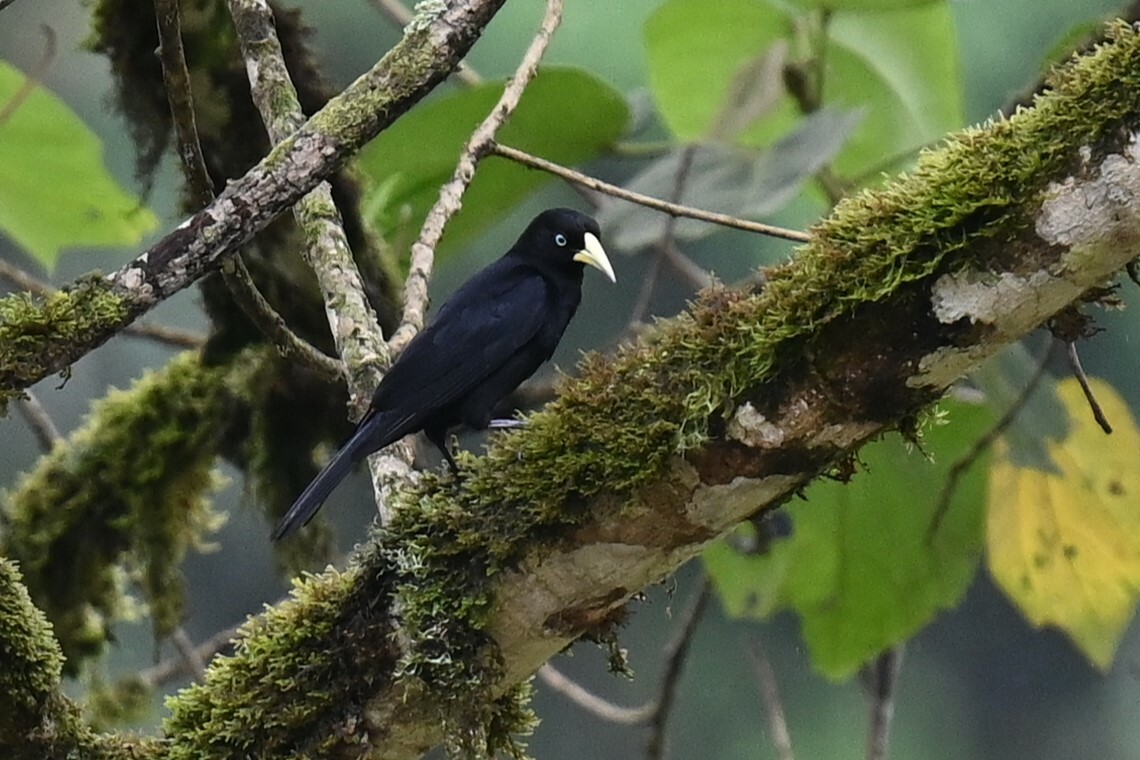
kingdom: Animalia
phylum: Chordata
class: Aves
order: Passeriformes
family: Icteridae
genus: Cacicus
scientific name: Cacicus uropygialis
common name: Scarlet-rumped cacique
